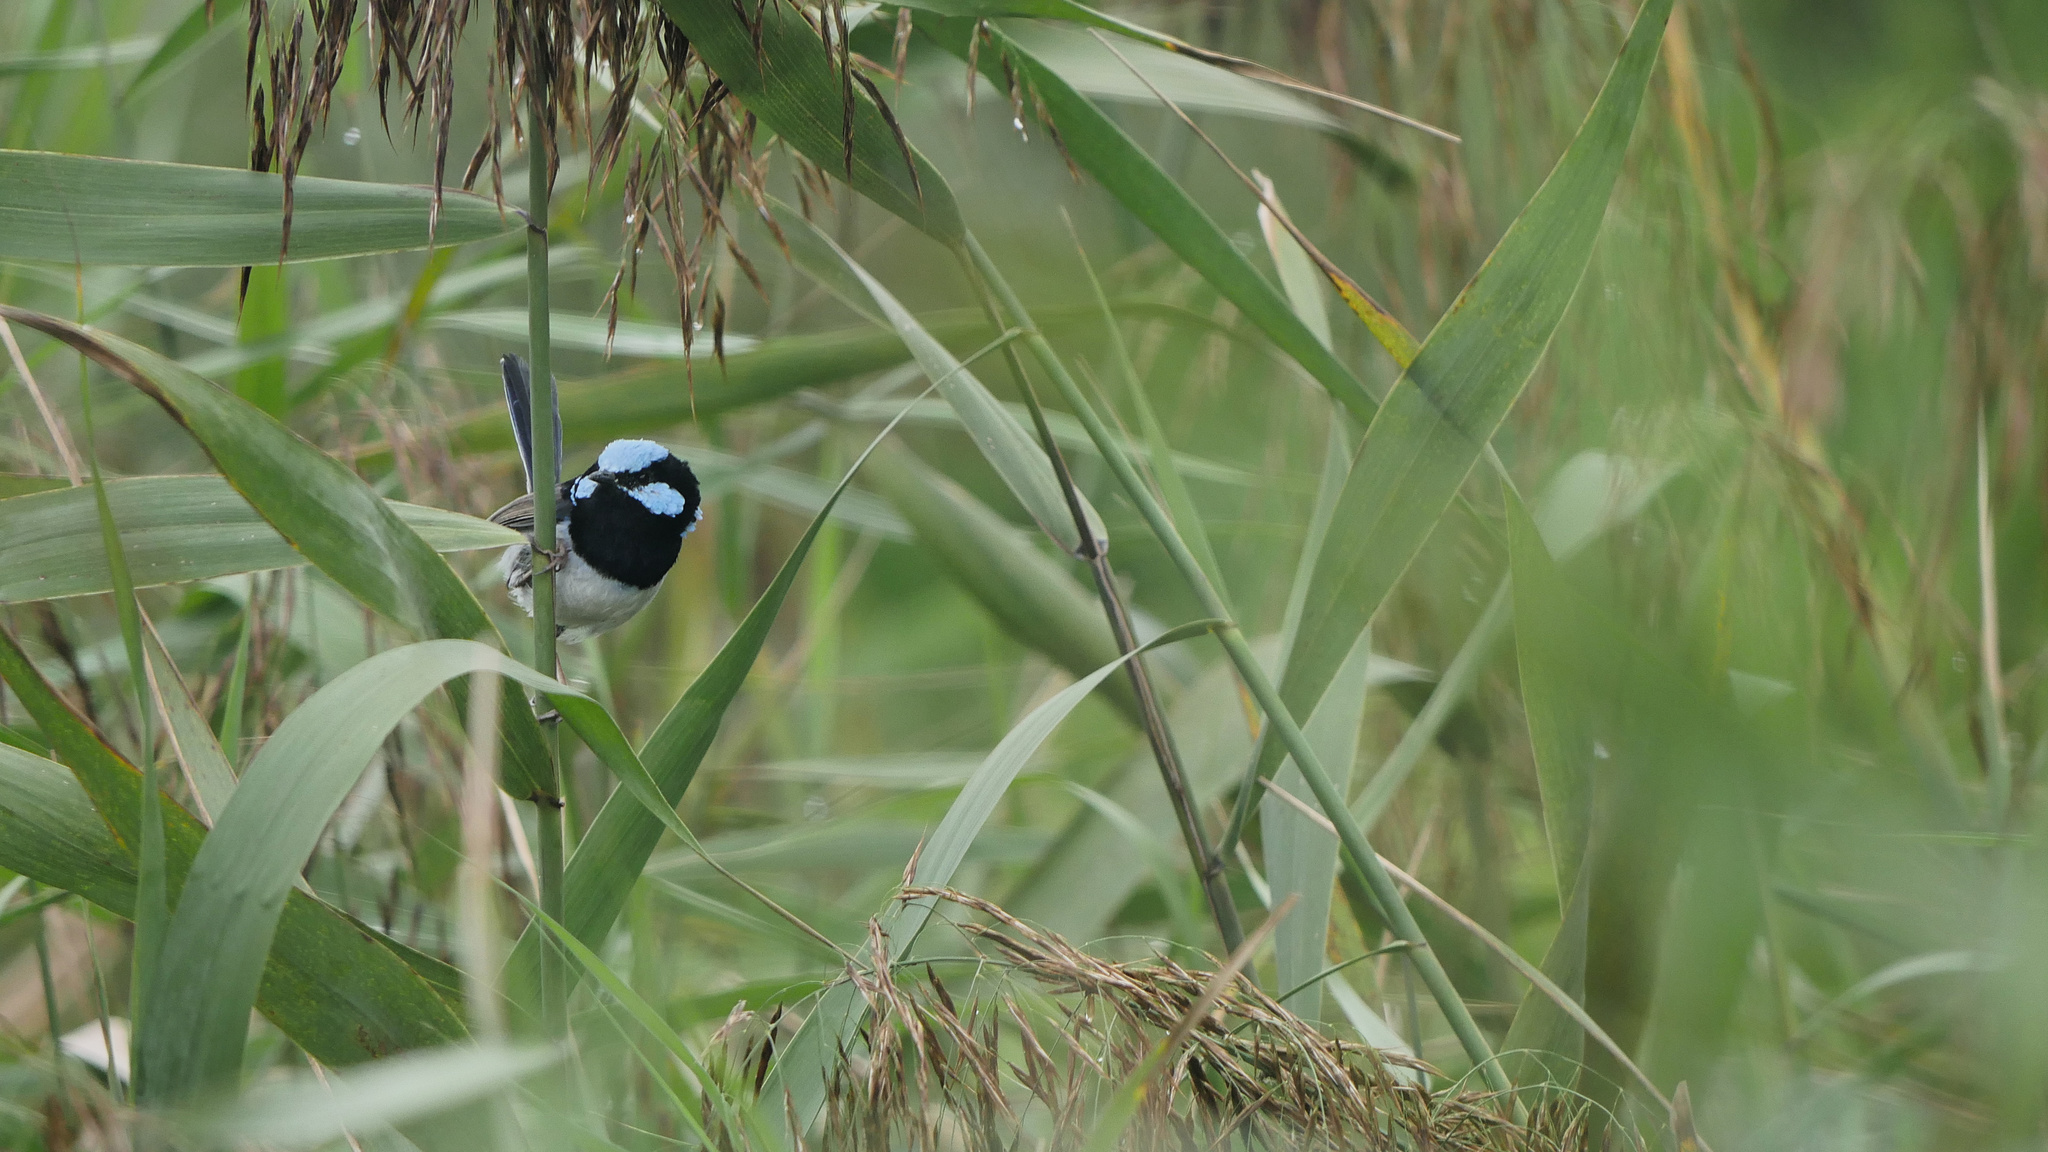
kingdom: Animalia
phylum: Chordata
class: Aves
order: Passeriformes
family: Maluridae
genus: Malurus
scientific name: Malurus cyaneus
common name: Superb fairywren
